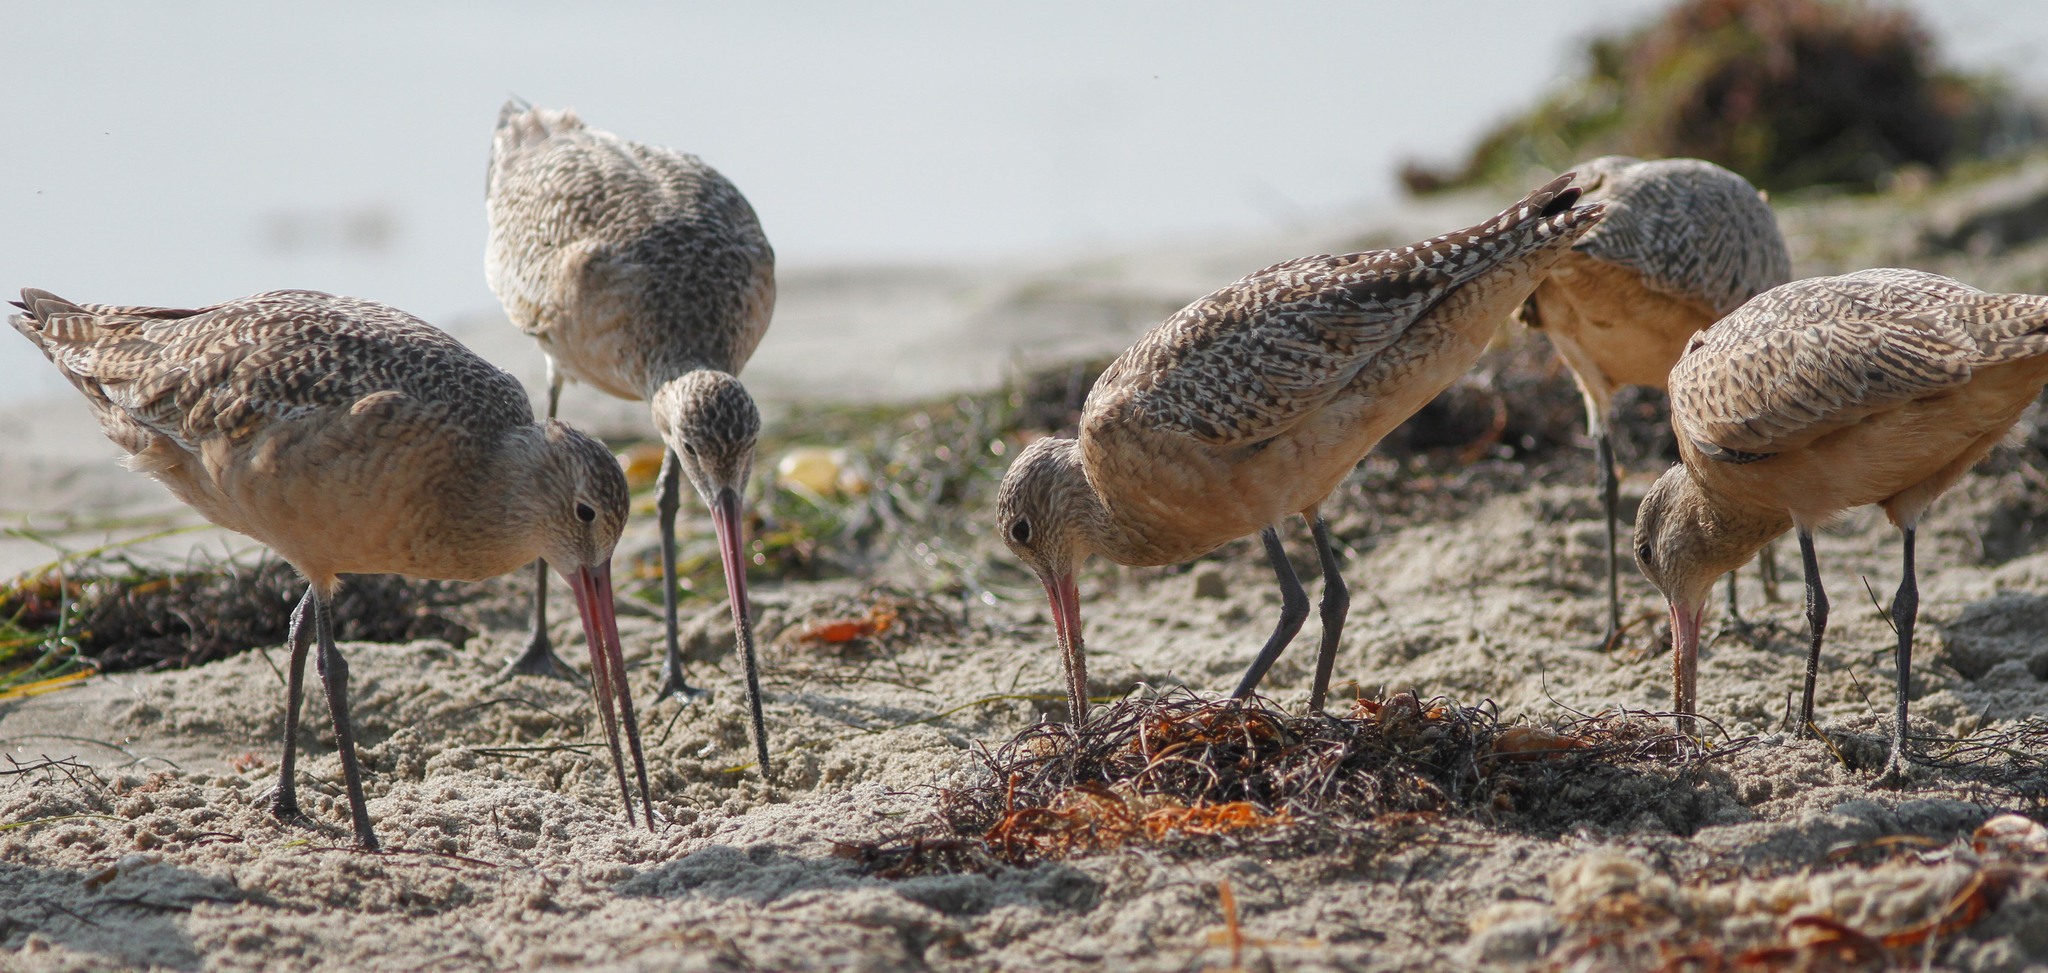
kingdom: Animalia
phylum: Chordata
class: Aves
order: Charadriiformes
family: Scolopacidae
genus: Limosa
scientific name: Limosa fedoa
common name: Marbled godwit
